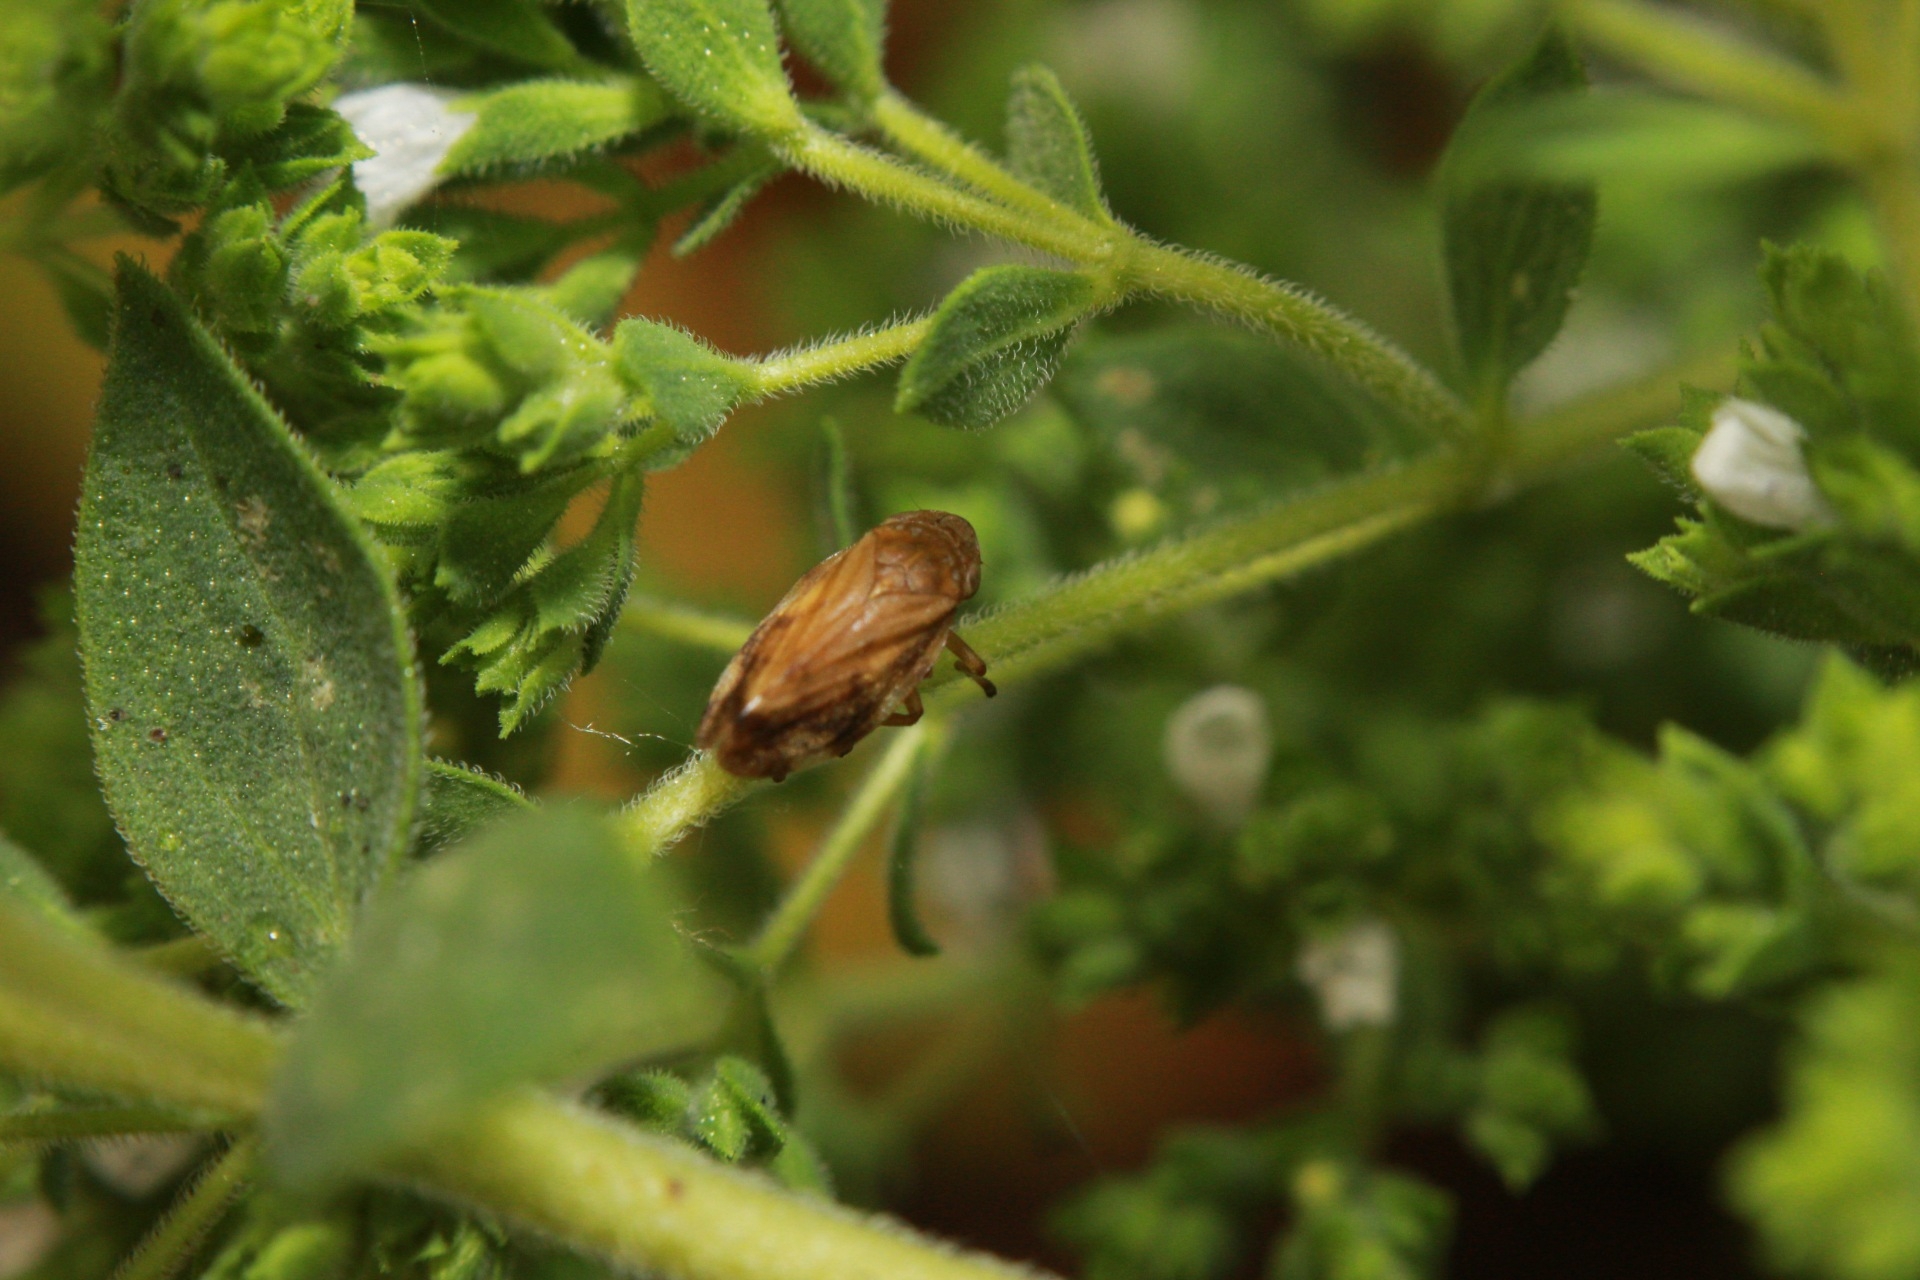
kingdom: Animalia
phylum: Arthropoda
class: Insecta
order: Hemiptera
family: Aphrophoridae
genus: Philaenus
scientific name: Philaenus spumarius
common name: Meadow spittlebug
